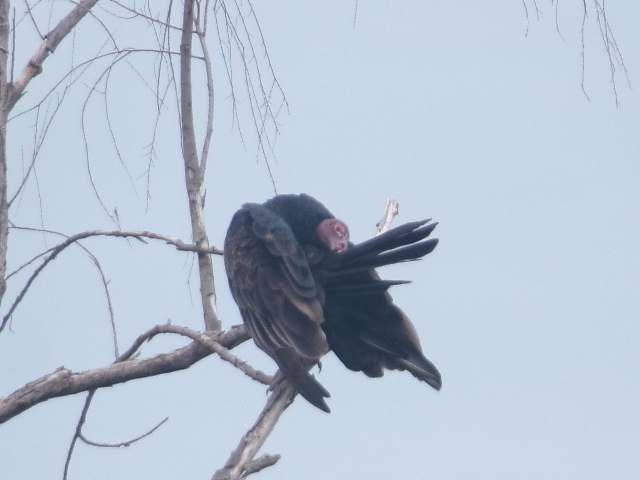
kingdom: Animalia
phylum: Chordata
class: Aves
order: Accipitriformes
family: Cathartidae
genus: Cathartes
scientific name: Cathartes aura
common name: Turkey vulture
